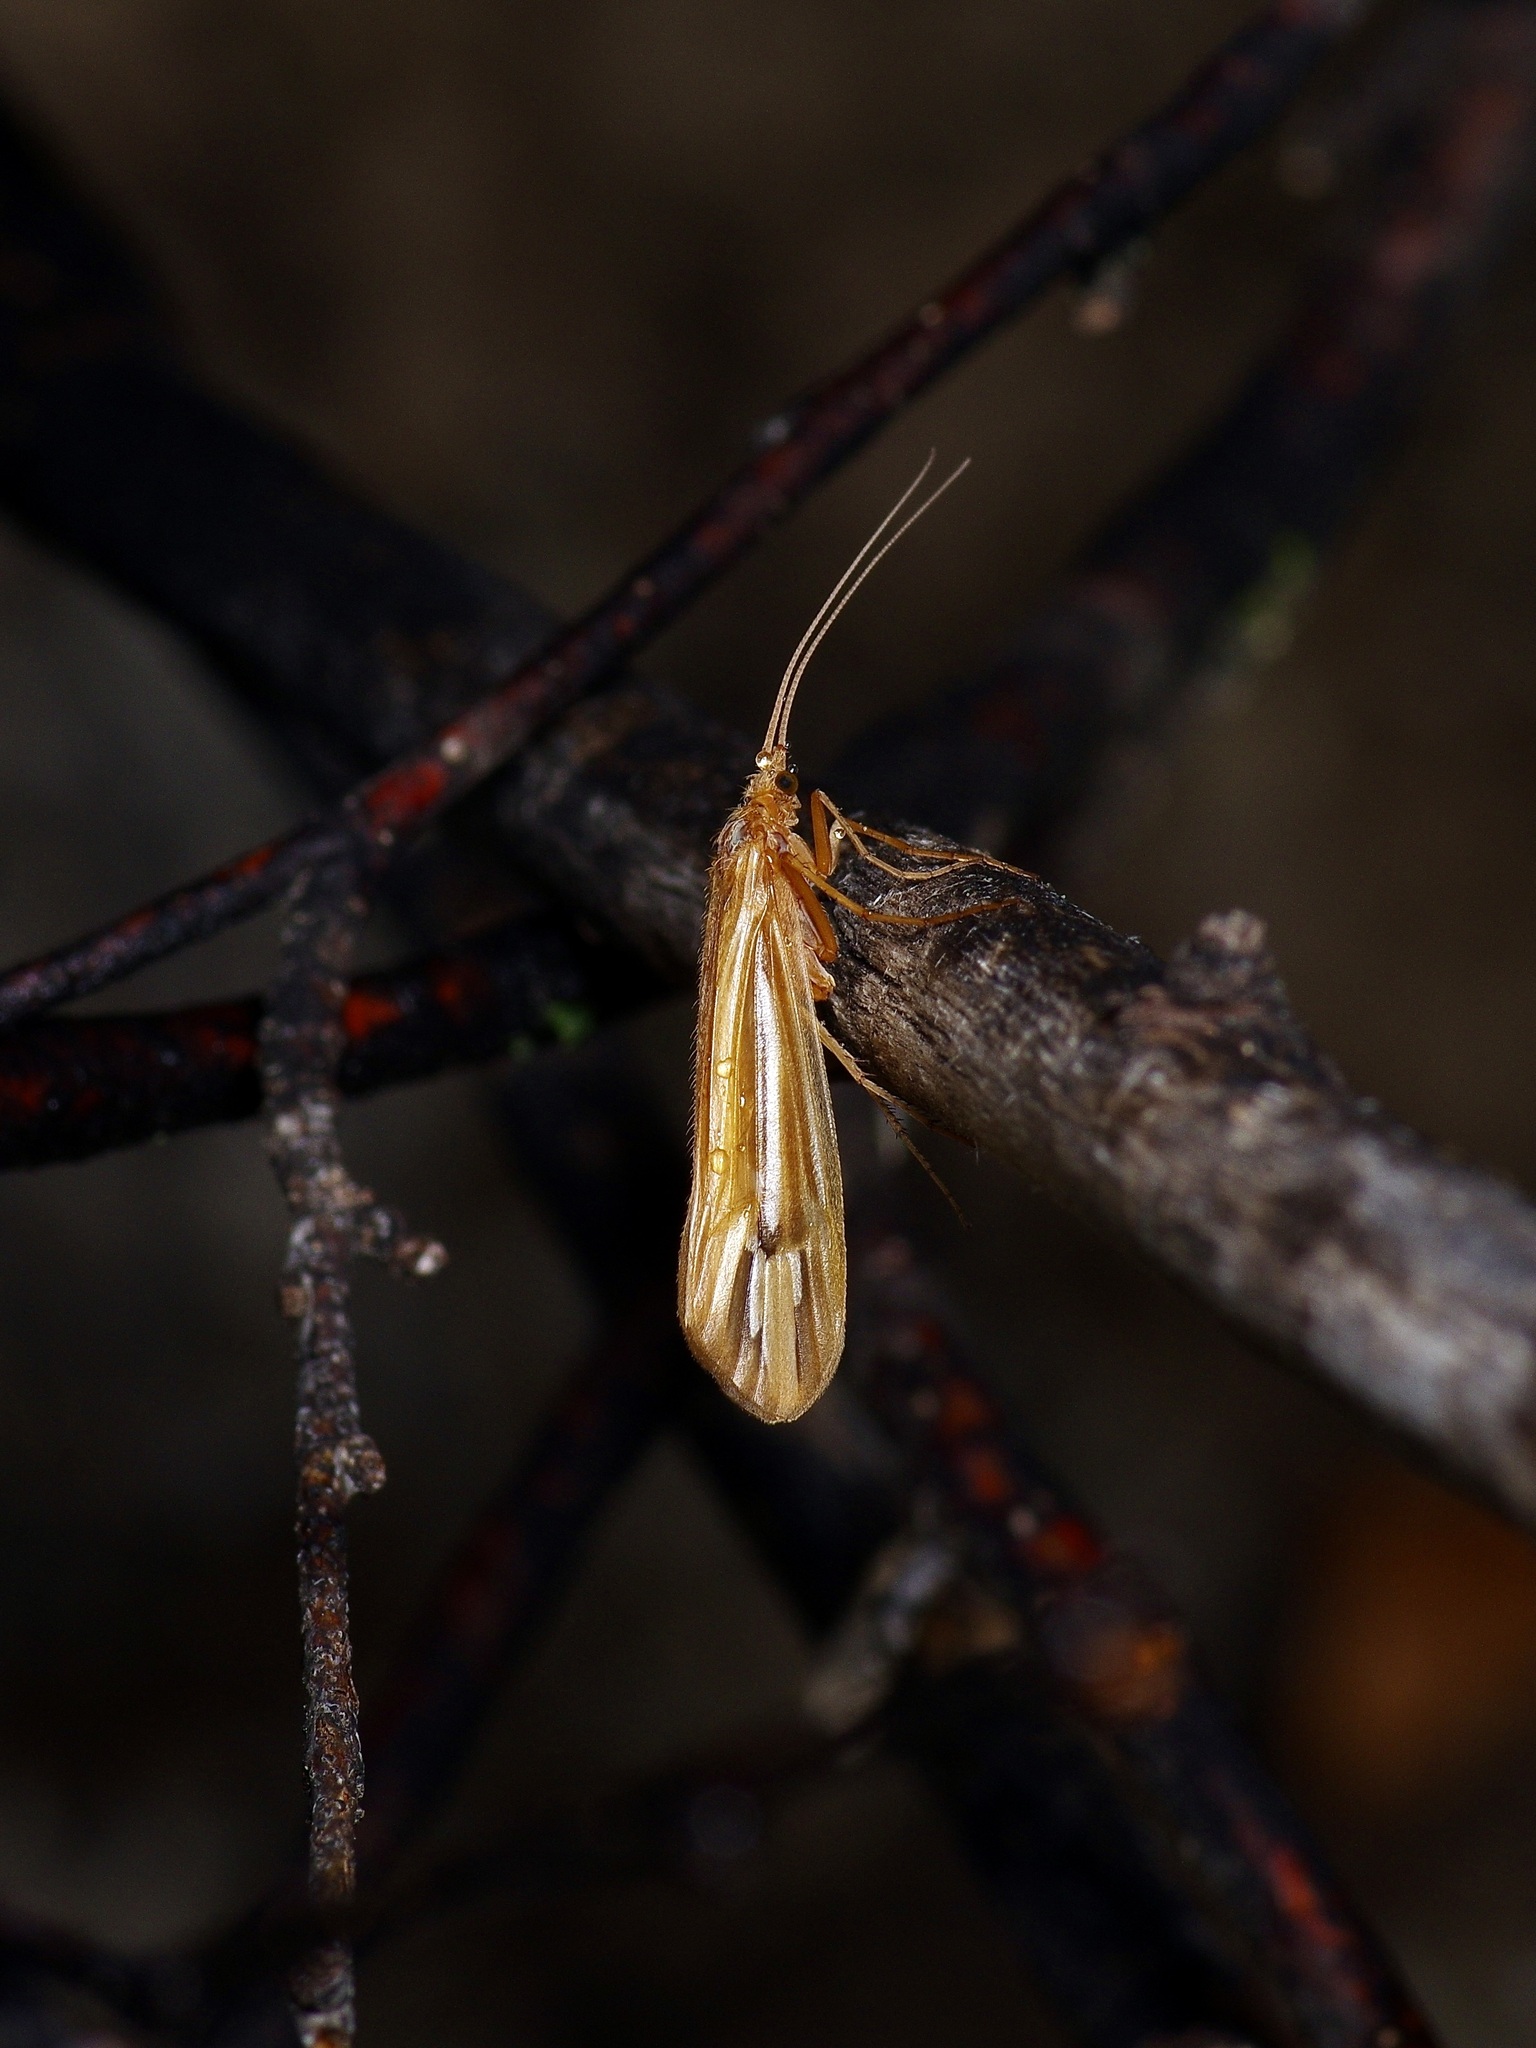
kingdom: Animalia
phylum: Arthropoda
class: Insecta
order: Trichoptera
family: Limnephilidae
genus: Hesperophylax
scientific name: Hesperophylax designatus
